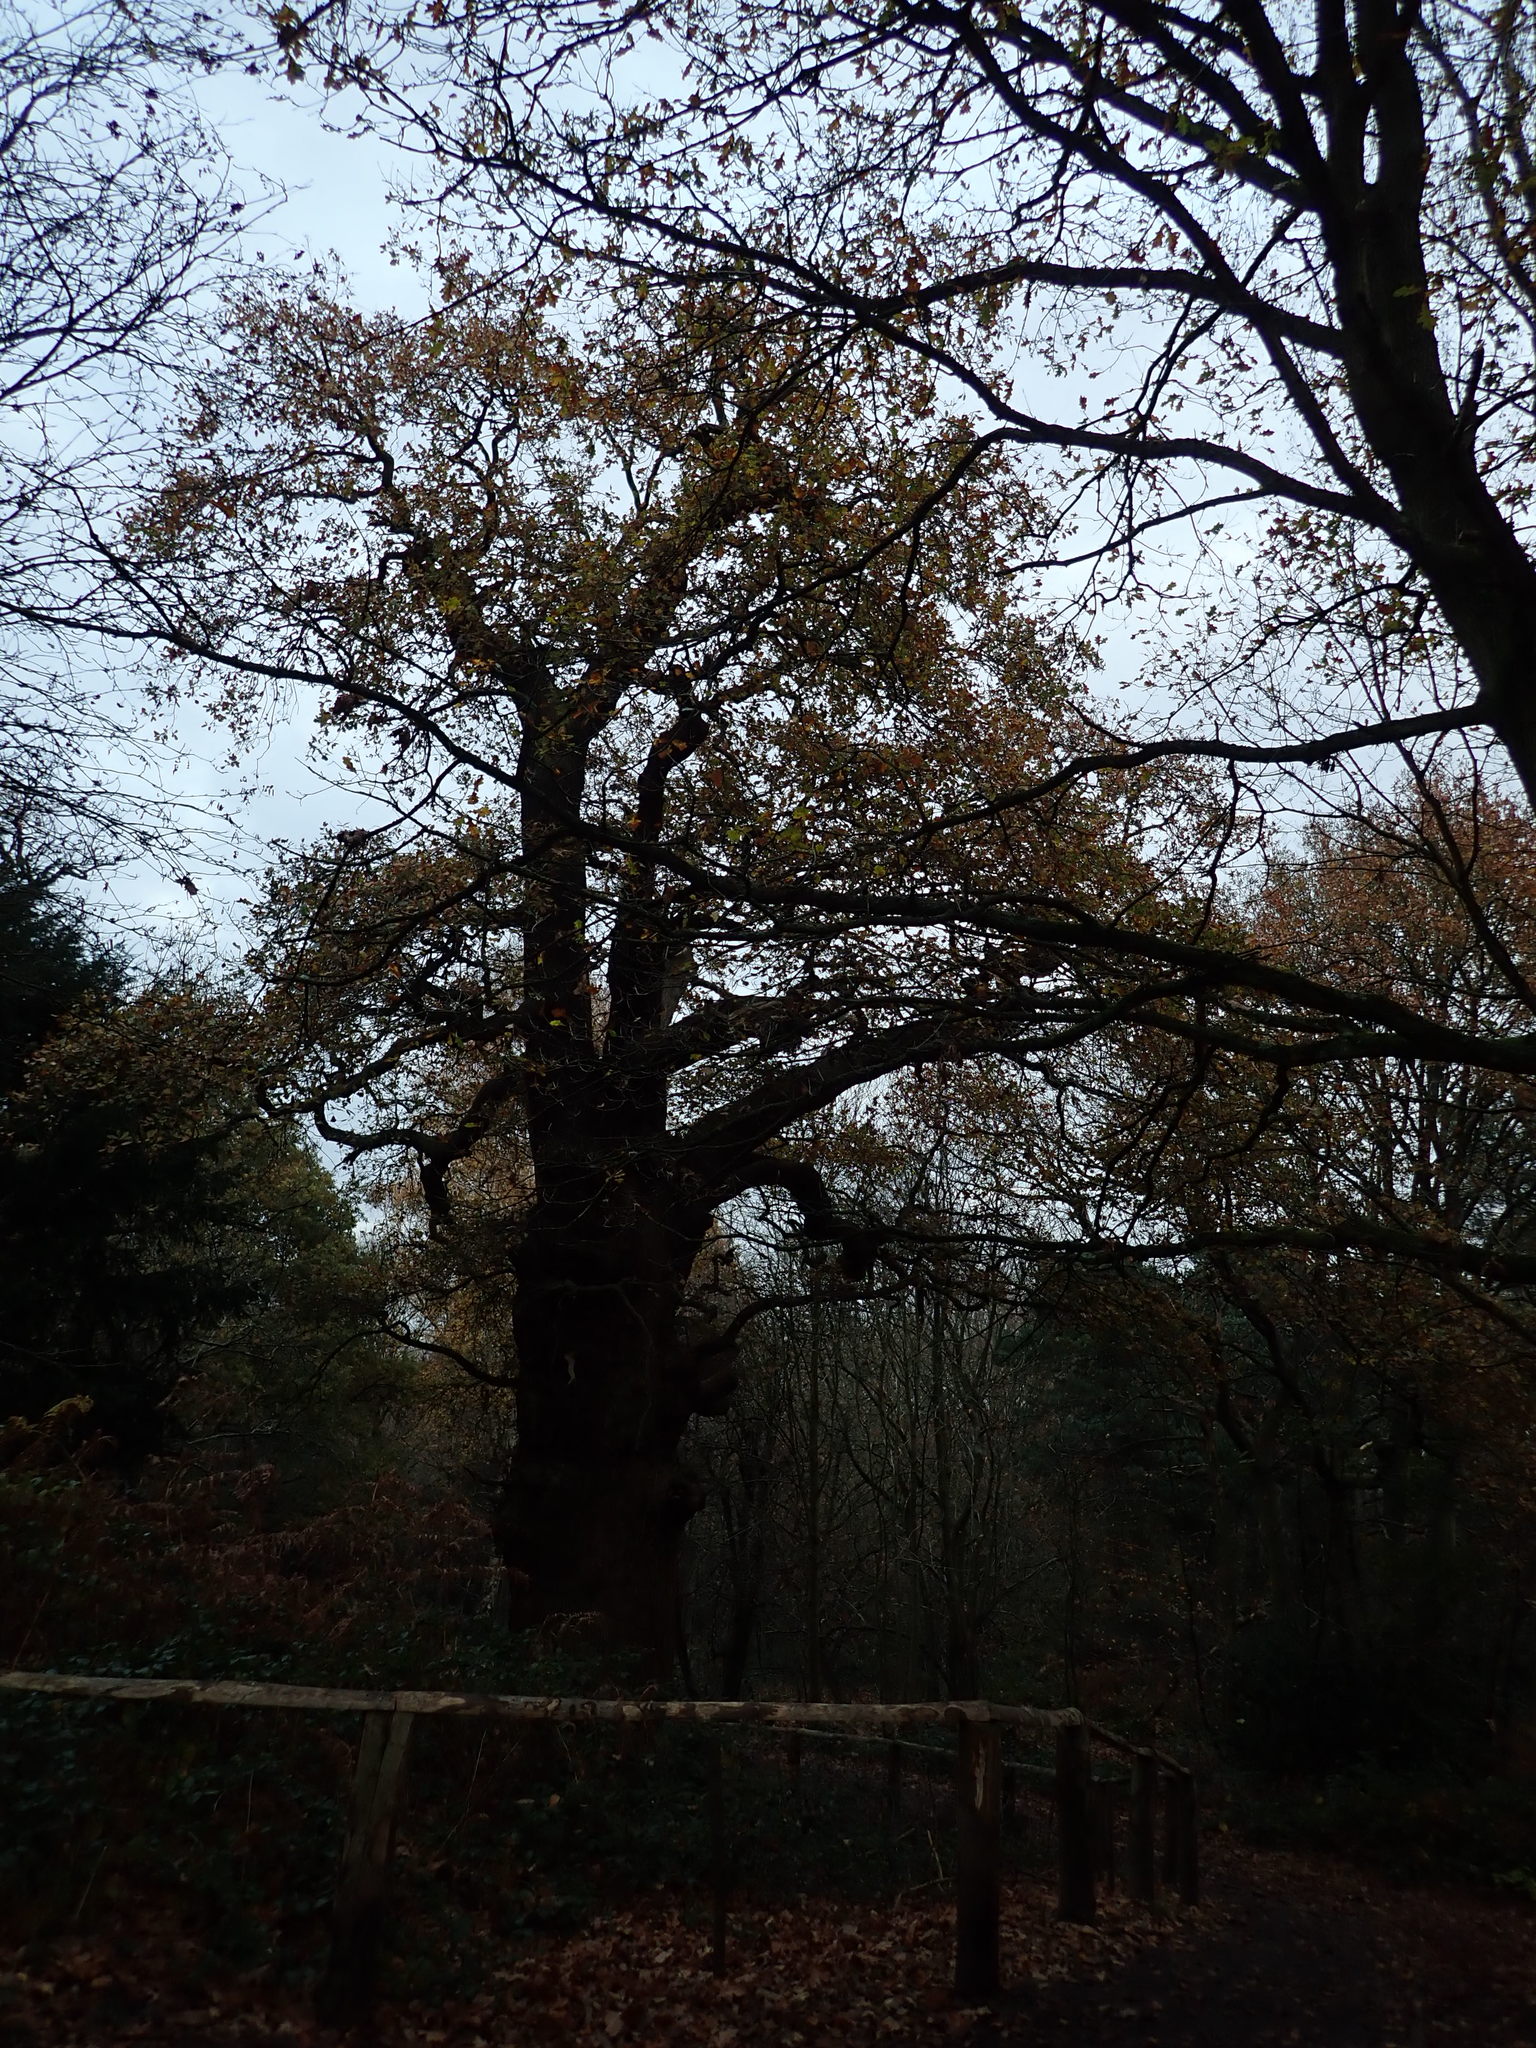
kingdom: Plantae
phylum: Tracheophyta
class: Magnoliopsida
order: Fagales
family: Fagaceae
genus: Quercus
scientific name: Quercus robur
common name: Pedunculate oak
